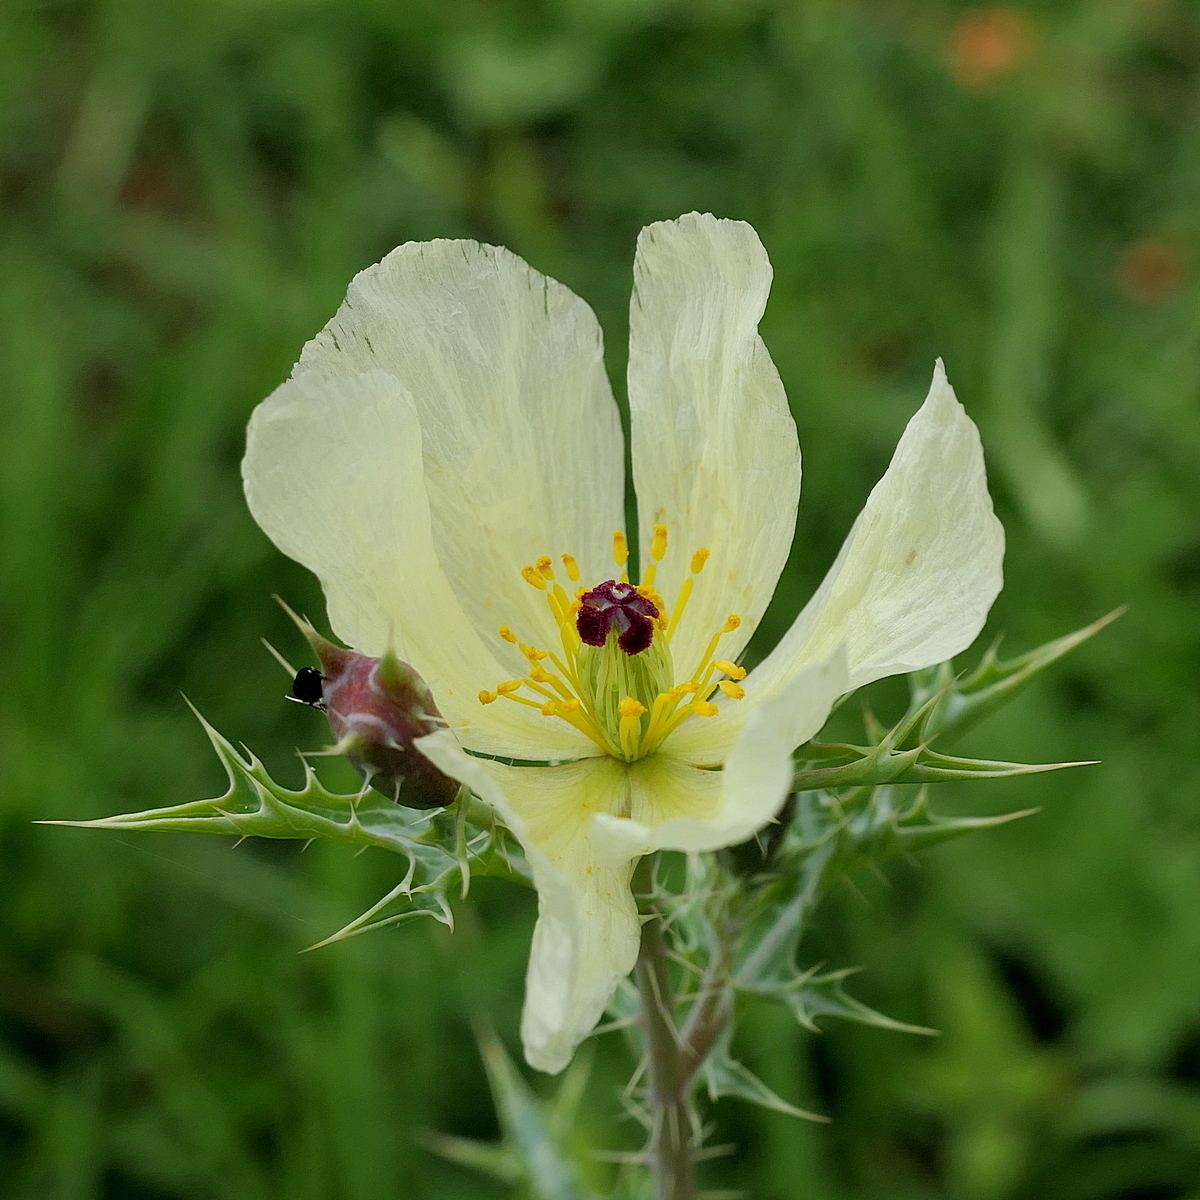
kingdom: Plantae
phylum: Tracheophyta
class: Magnoliopsida
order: Ranunculales
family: Papaveraceae
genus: Argemone
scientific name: Argemone ochroleuca
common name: White-flower mexican-poppy
